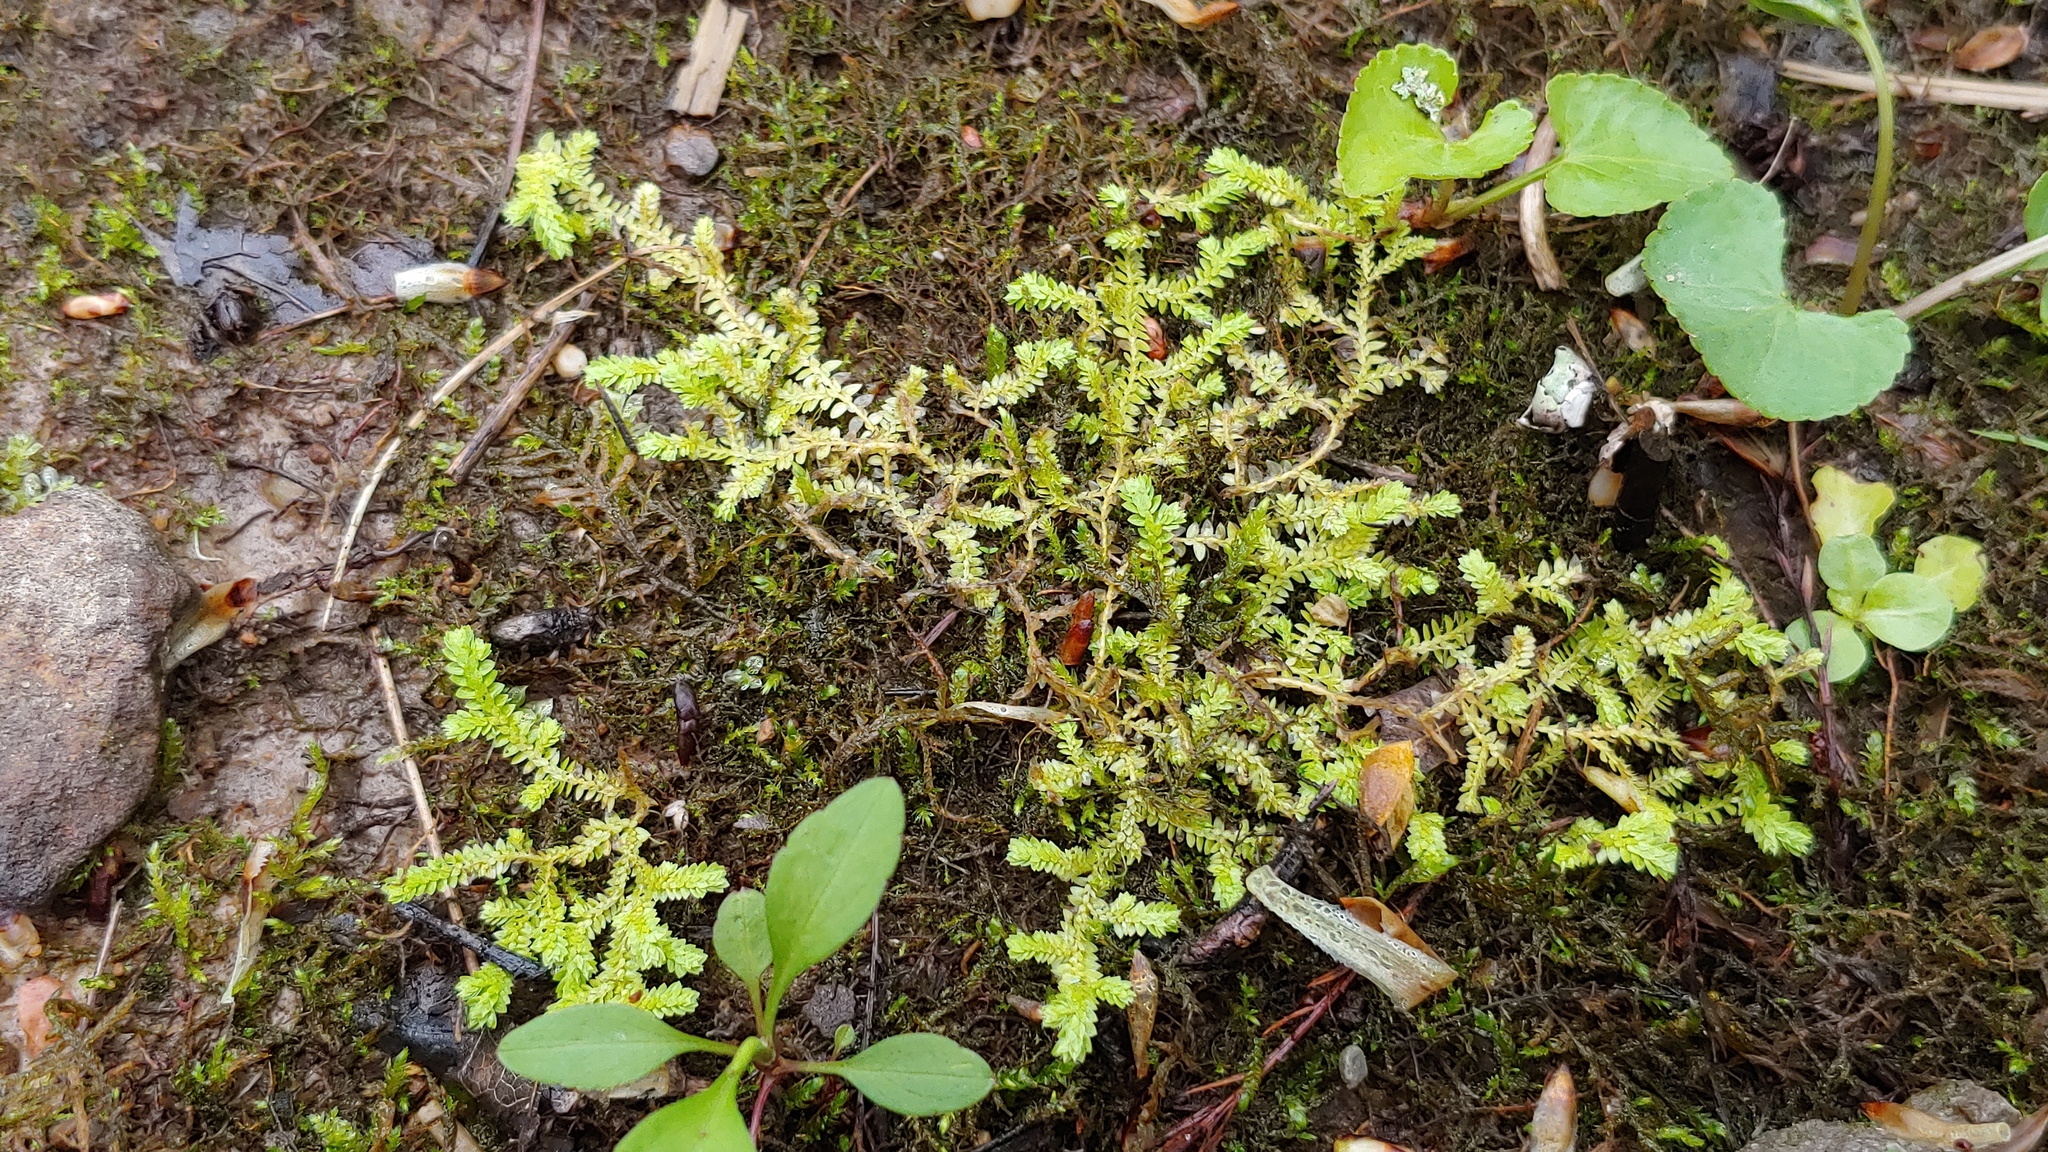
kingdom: Plantae
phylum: Tracheophyta
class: Lycopodiopsida
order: Selaginellales
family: Selaginellaceae
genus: Selaginella
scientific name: Selaginella apoda
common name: Creeping spikemoss
